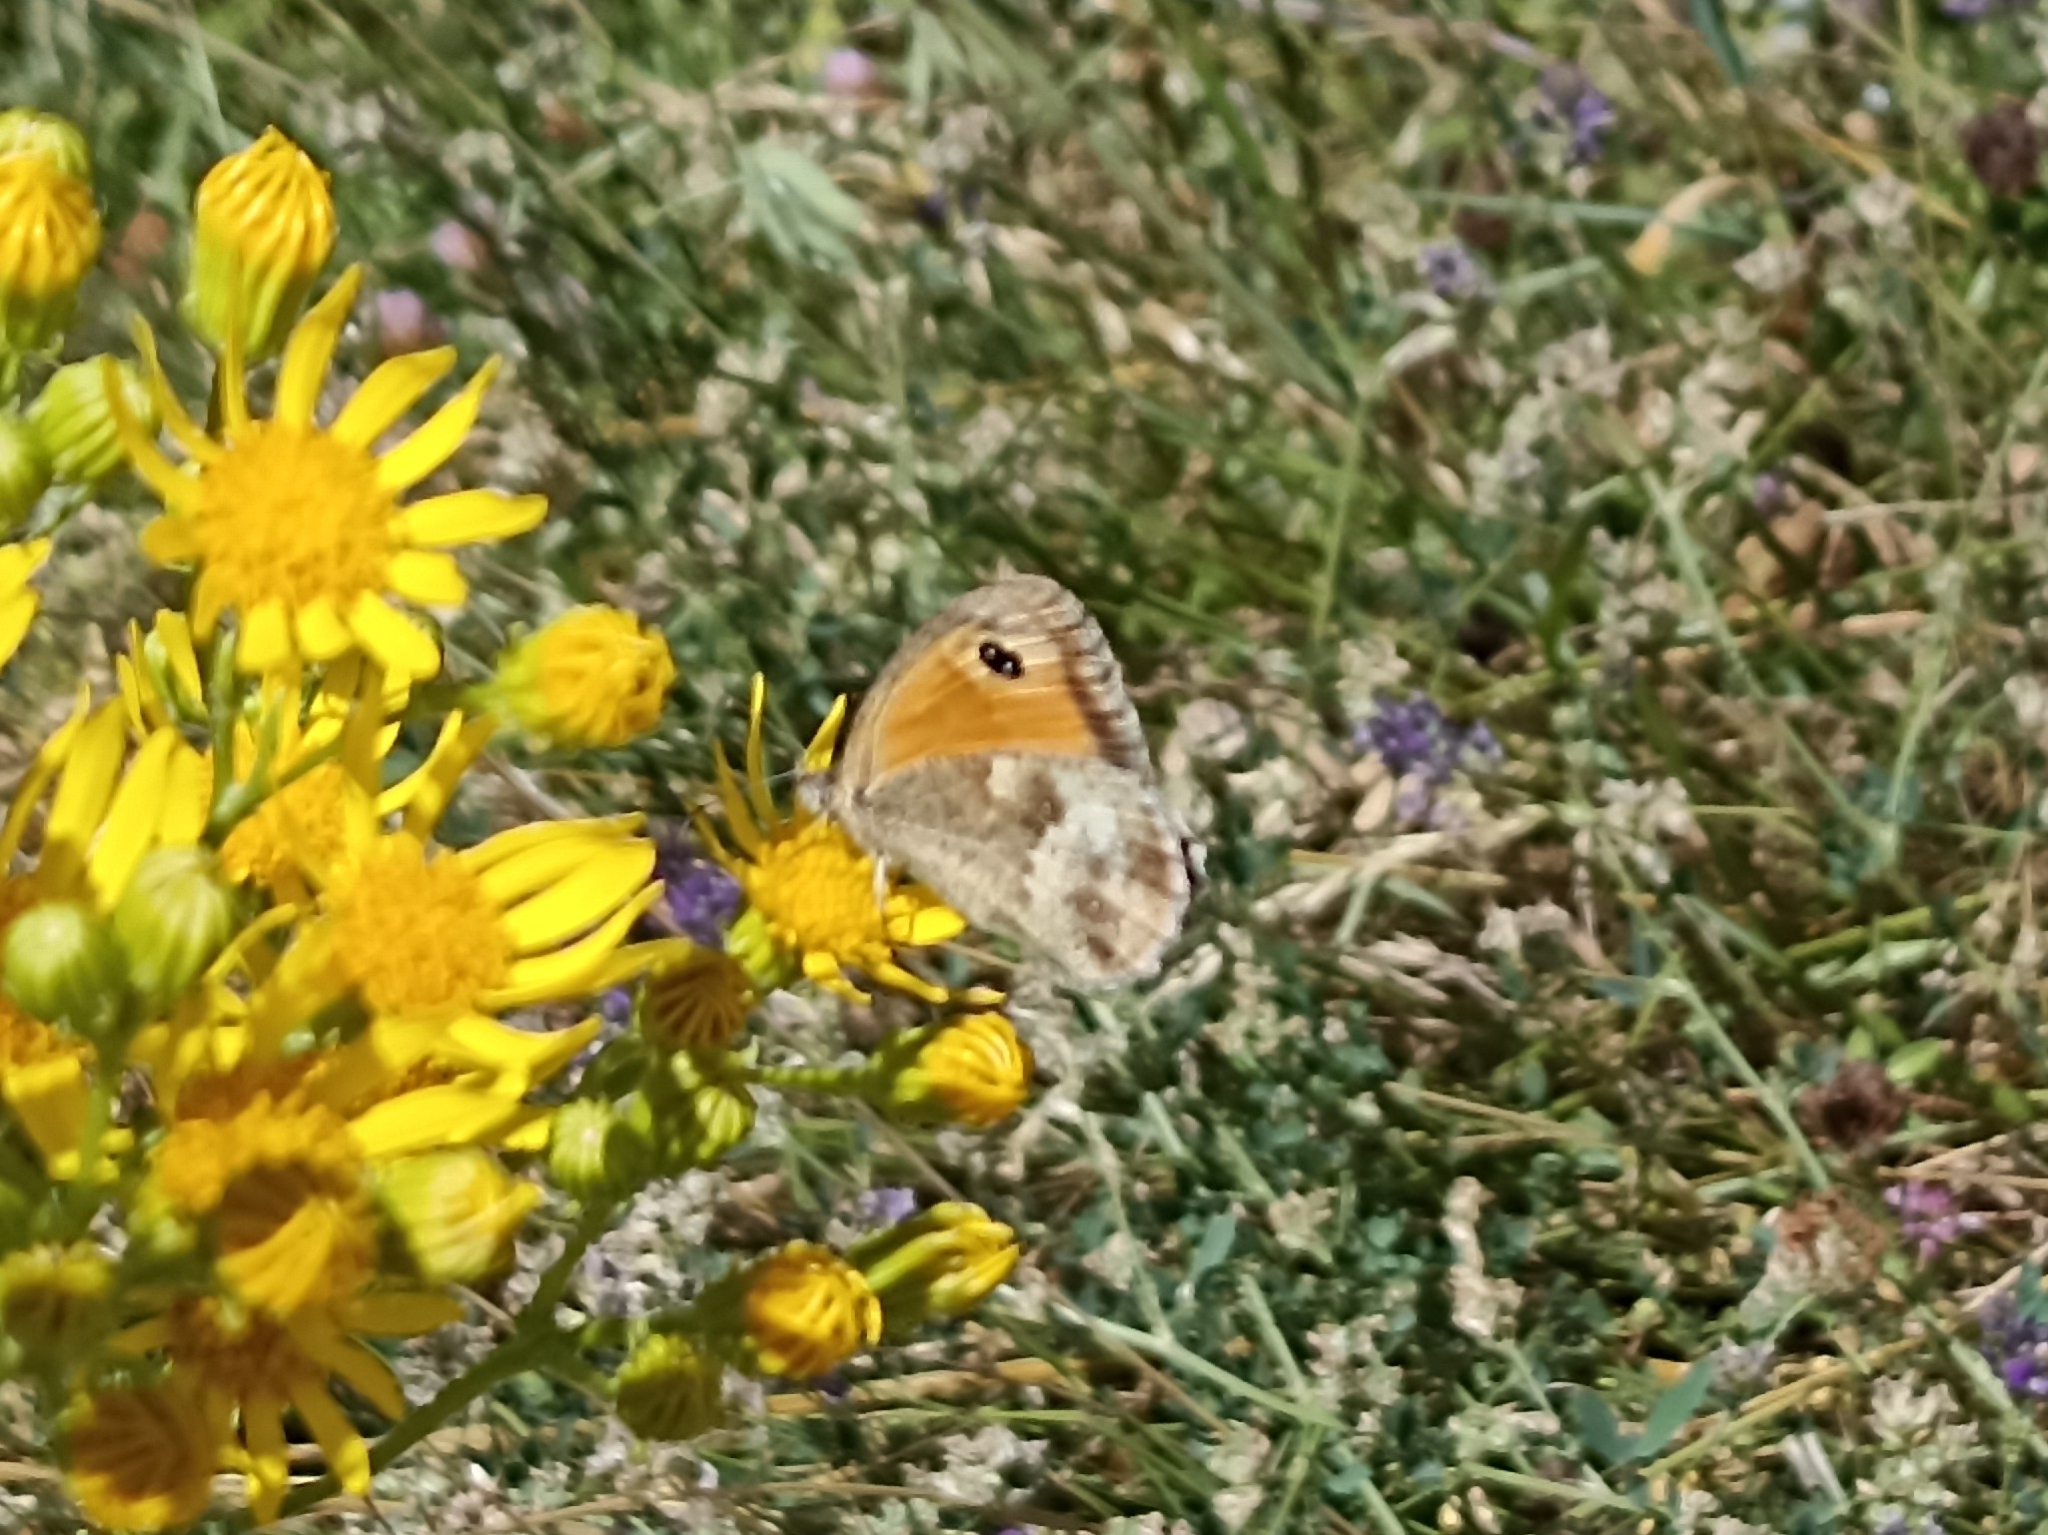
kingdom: Animalia
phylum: Arthropoda
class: Insecta
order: Lepidoptera
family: Nymphalidae
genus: Pyronia
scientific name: Pyronia tithonus
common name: Gatekeeper
